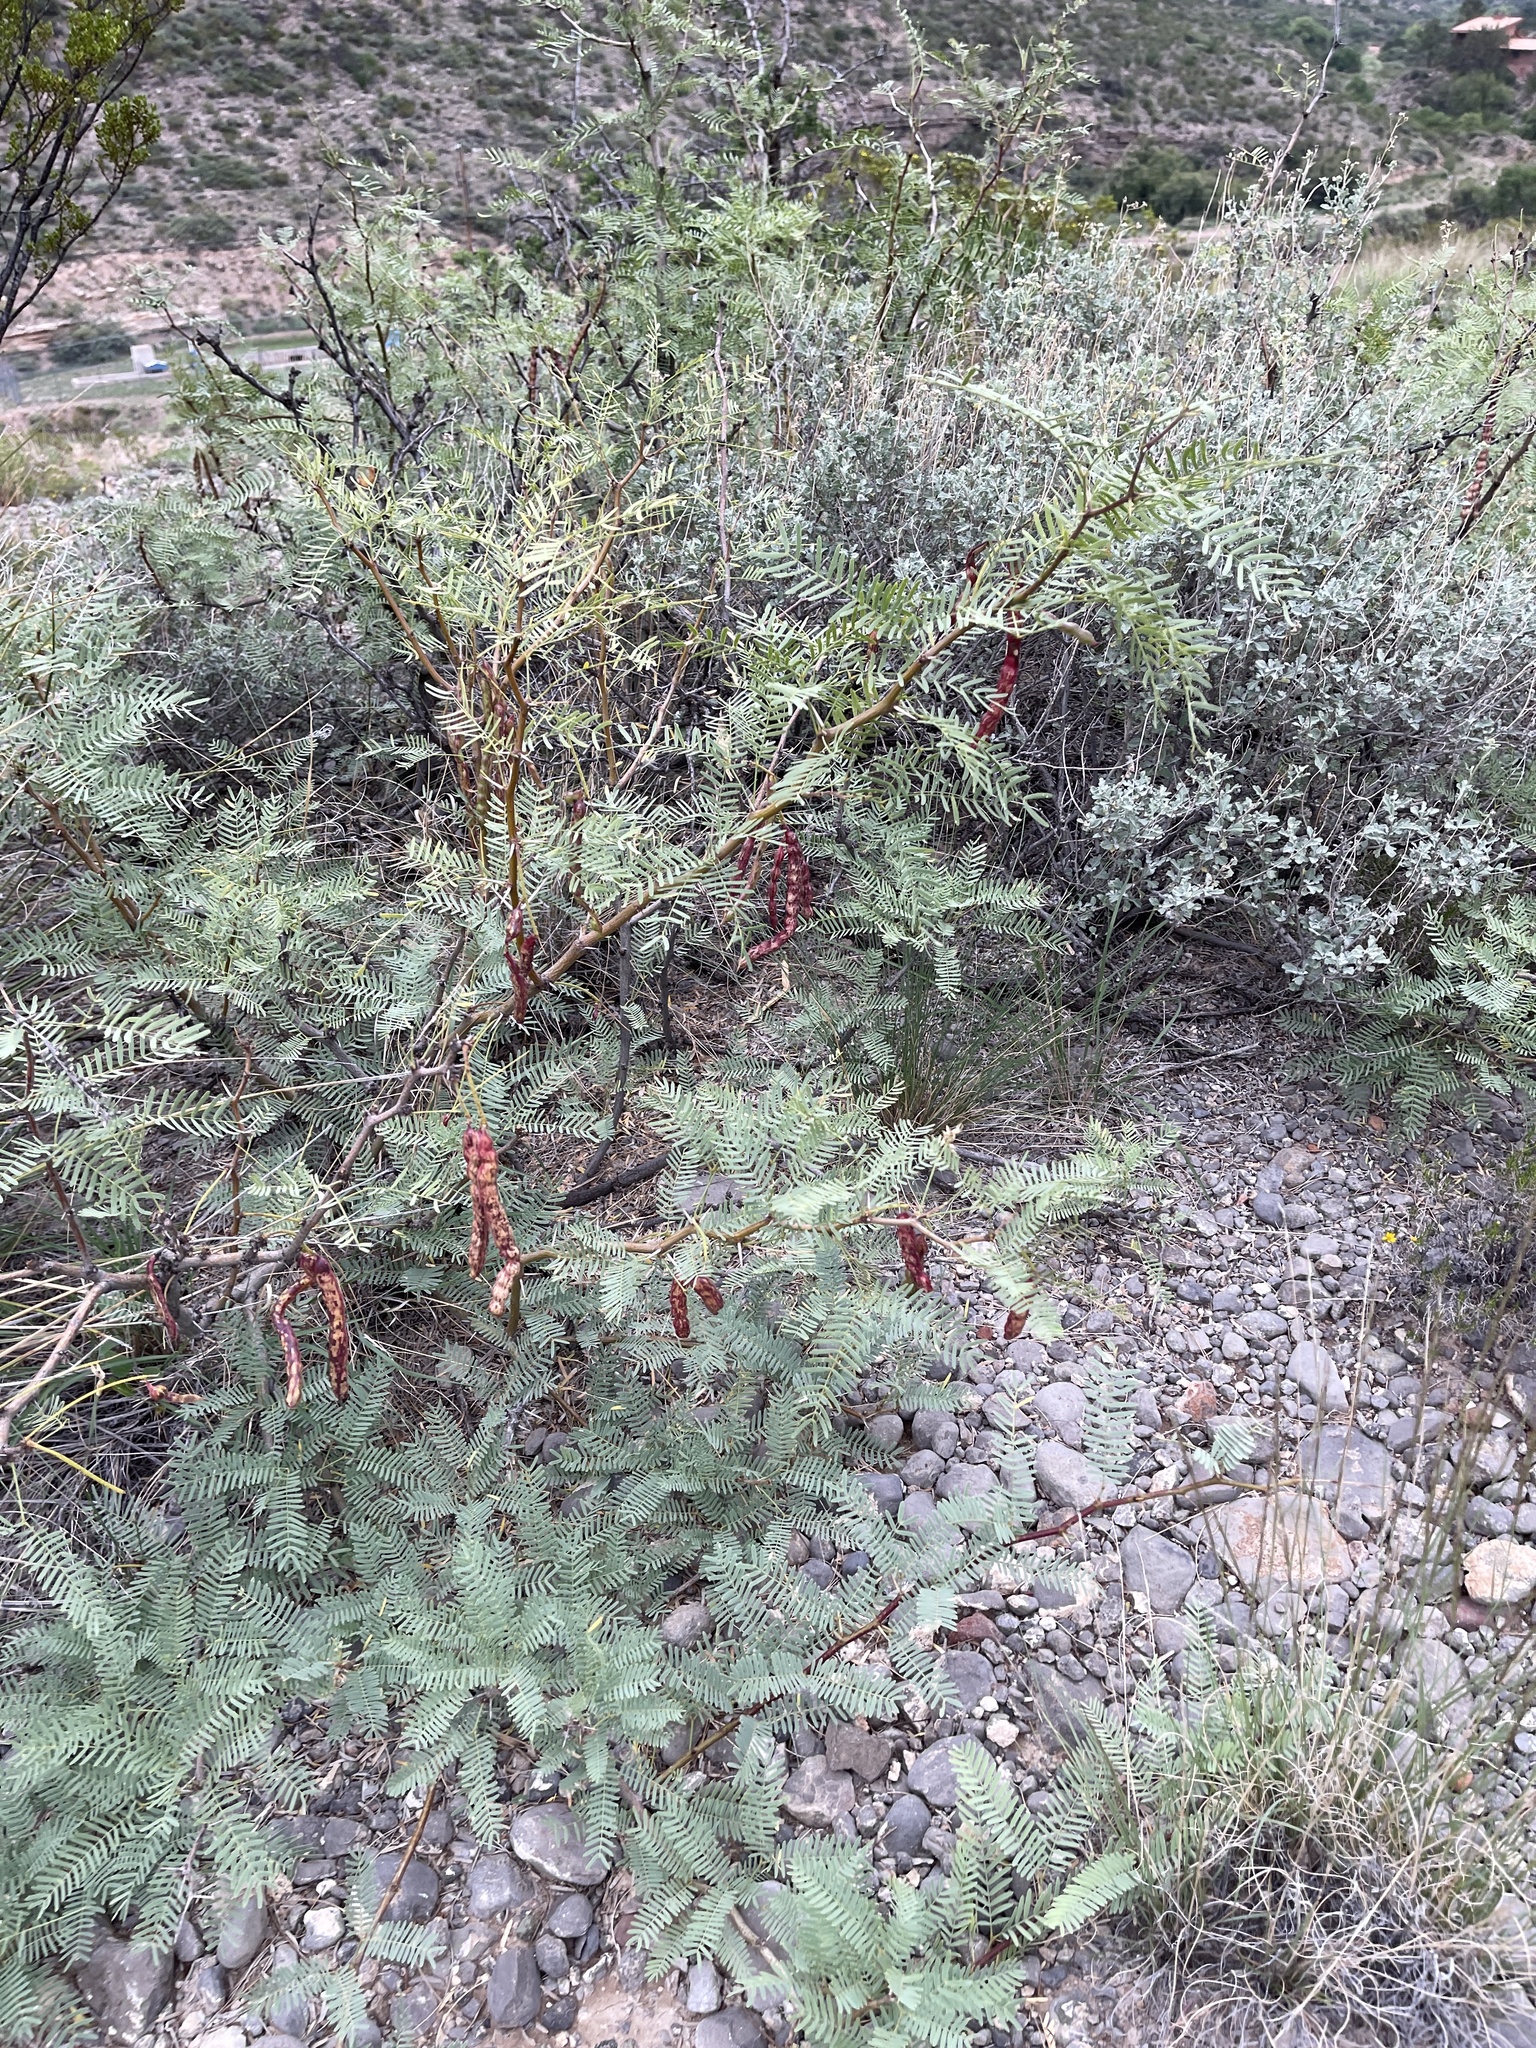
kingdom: Plantae
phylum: Tracheophyta
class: Magnoliopsida
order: Fabales
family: Fabaceae
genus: Prosopis
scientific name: Prosopis glandulosa
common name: Honey mesquite
